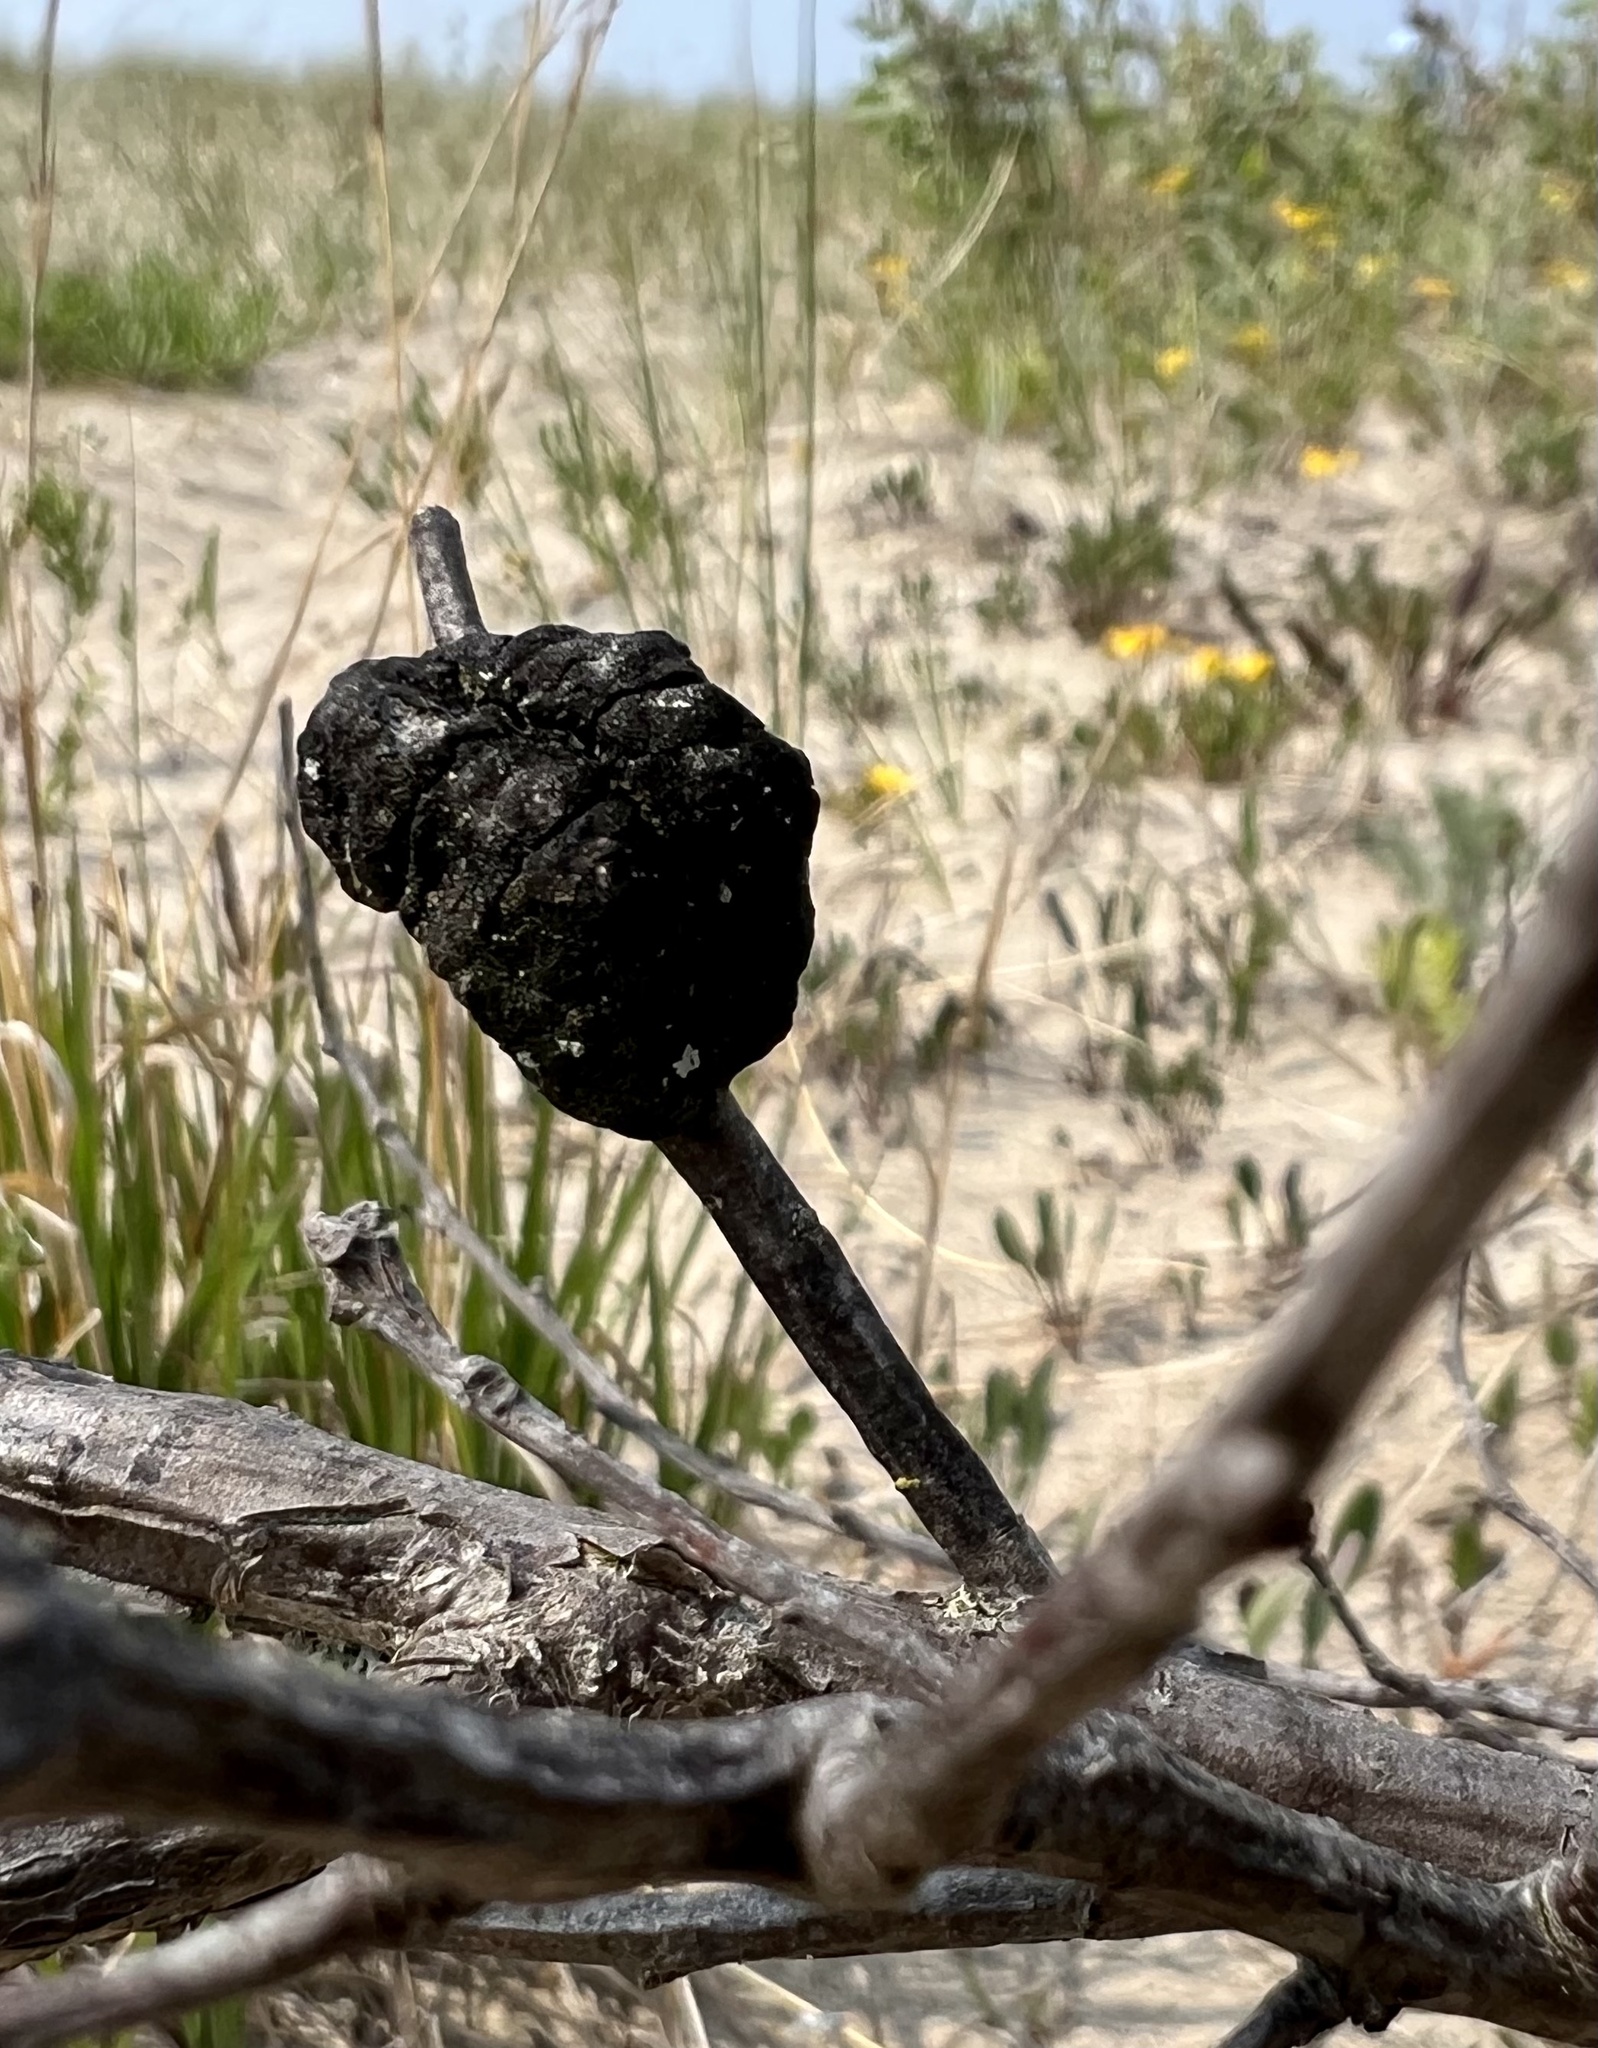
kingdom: Fungi
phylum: Ascomycota
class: Dothideomycetes
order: Venturiales
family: Venturiaceae
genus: Apiosporina
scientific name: Apiosporina morbosa
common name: Black knot
